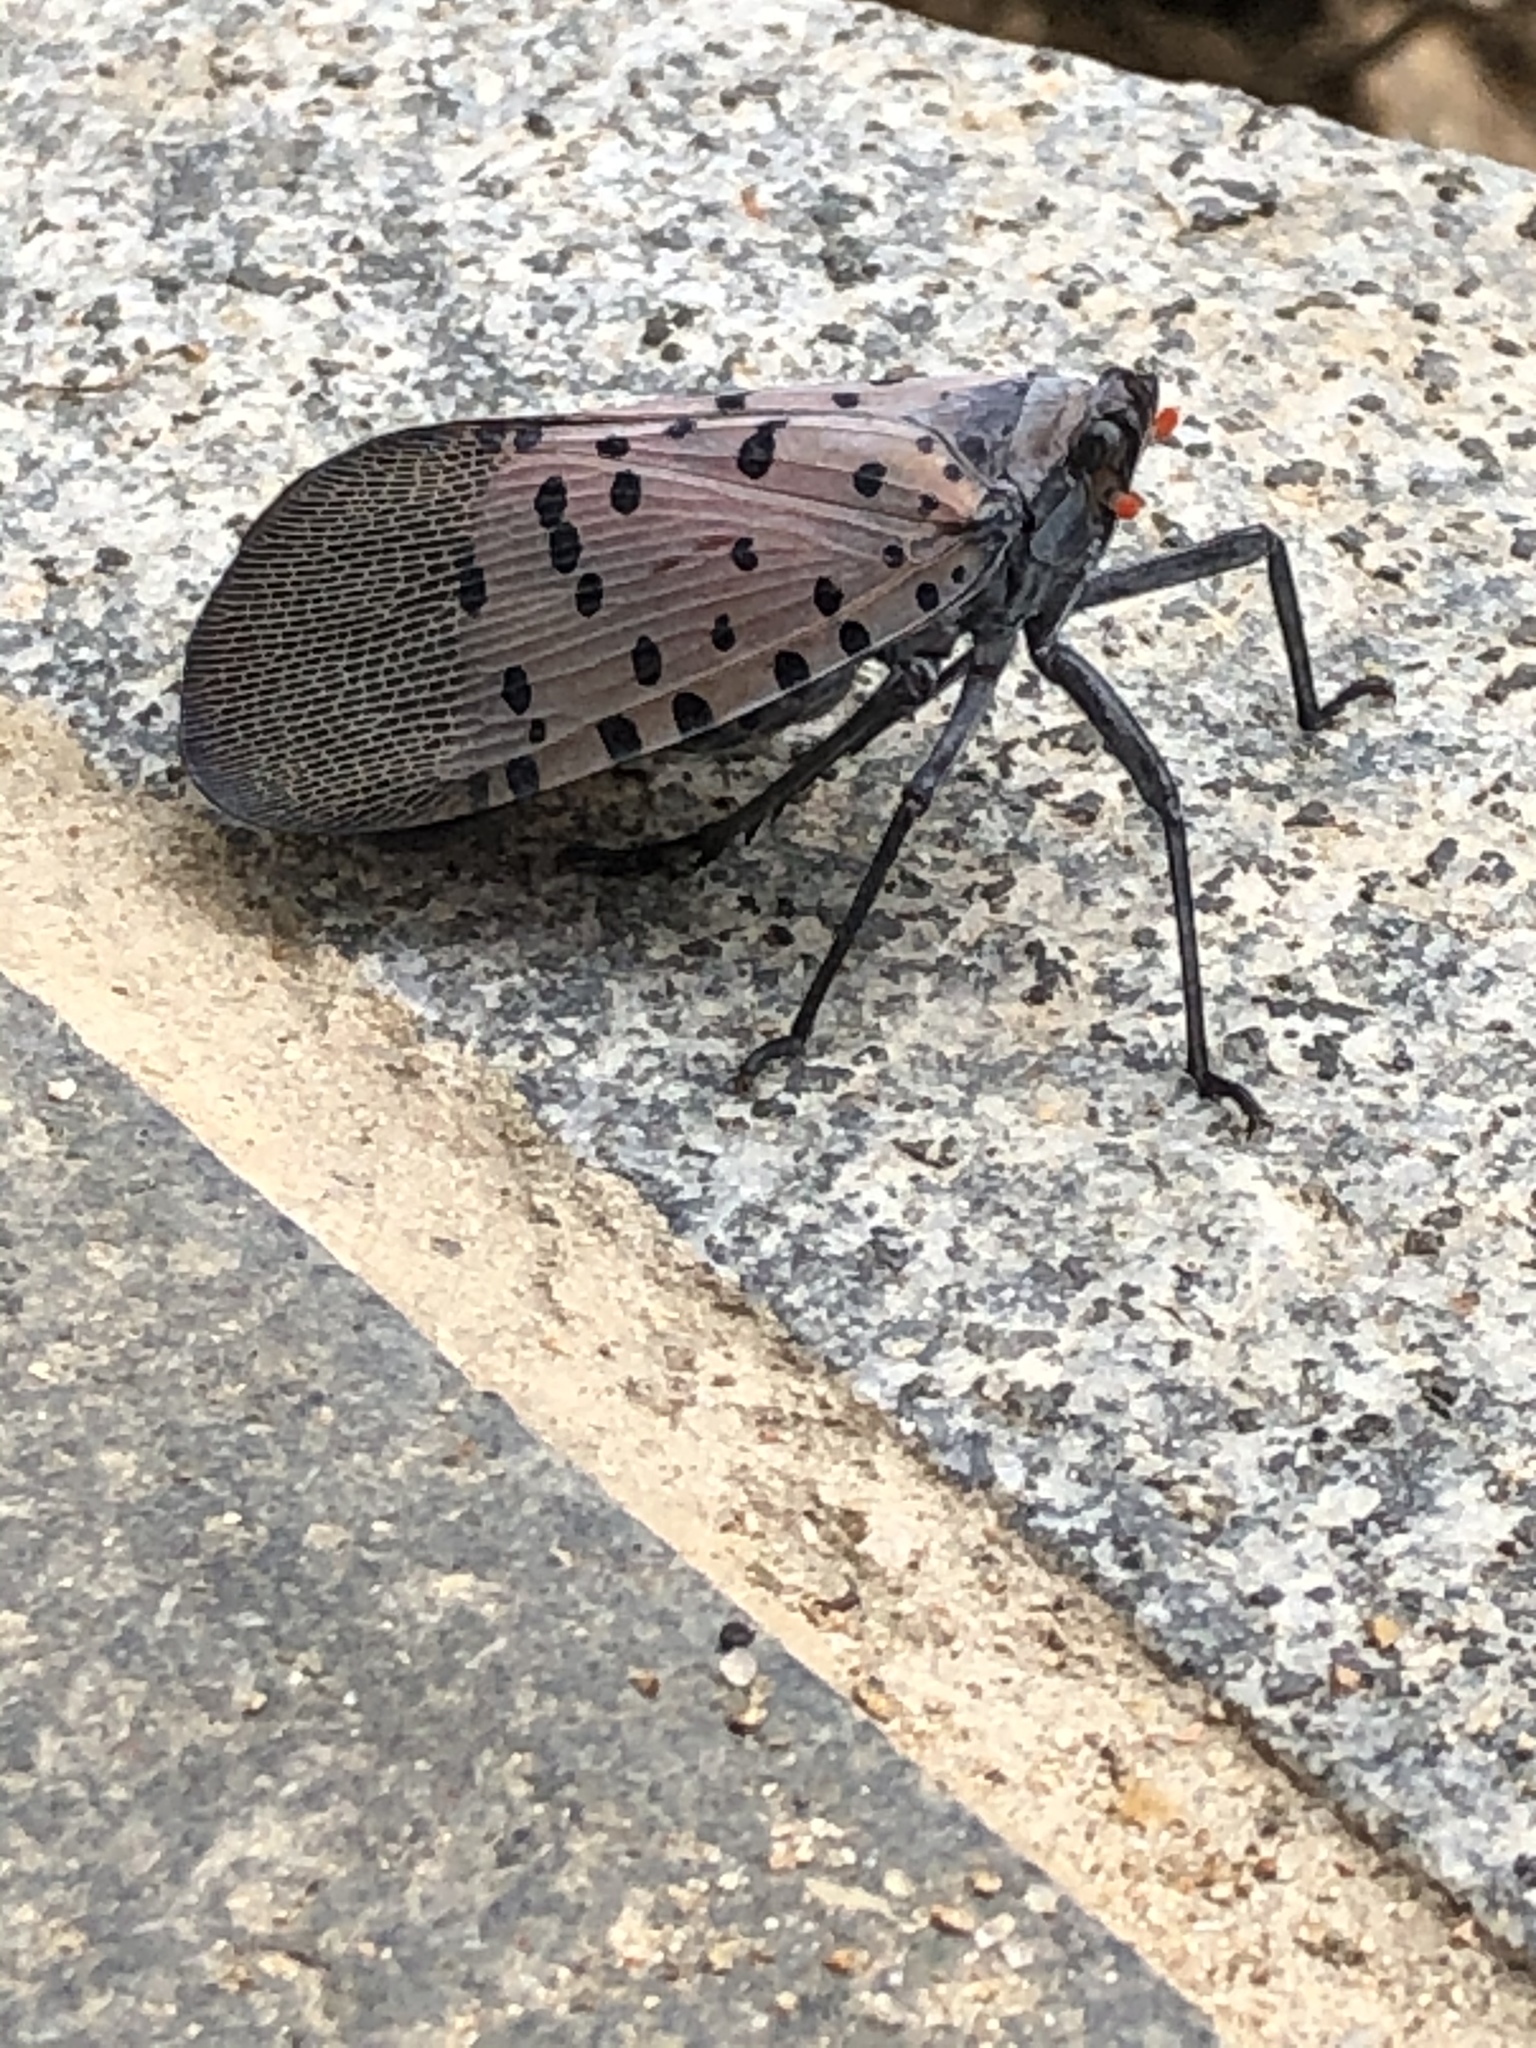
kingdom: Animalia
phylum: Arthropoda
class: Insecta
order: Hemiptera
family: Fulgoridae
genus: Lycorma
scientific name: Lycorma delicatula
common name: Spotted lanternfly
